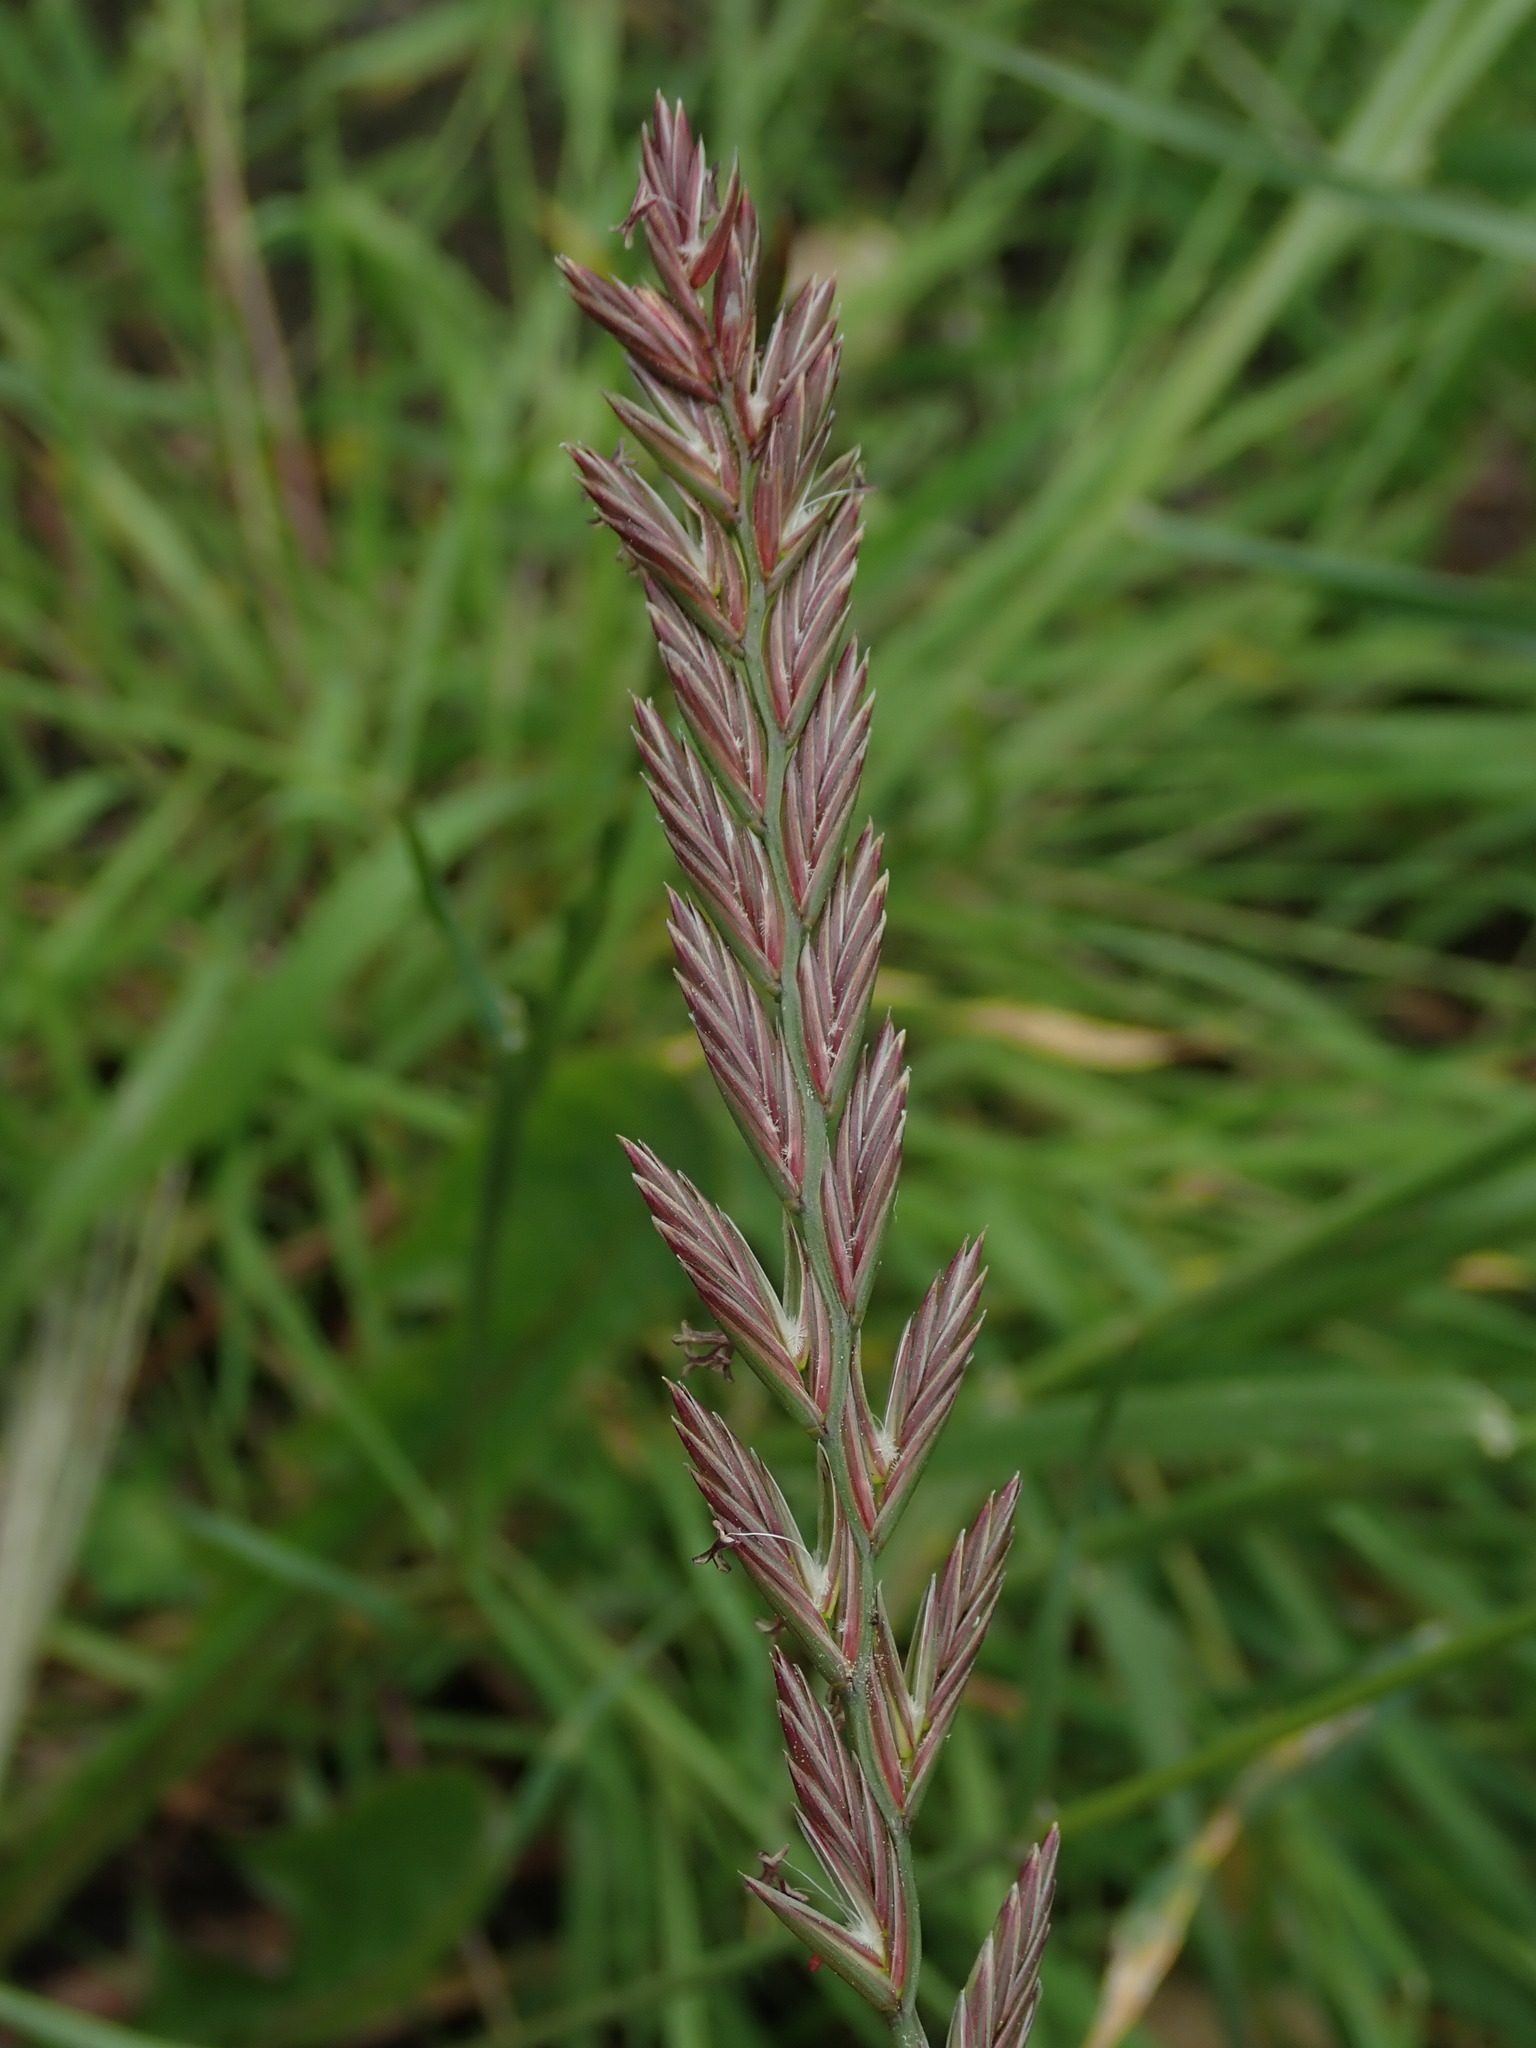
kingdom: Plantae
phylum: Tracheophyta
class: Liliopsida
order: Poales
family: Poaceae
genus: Lolium
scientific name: Lolium perenne
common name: Perennial ryegrass
